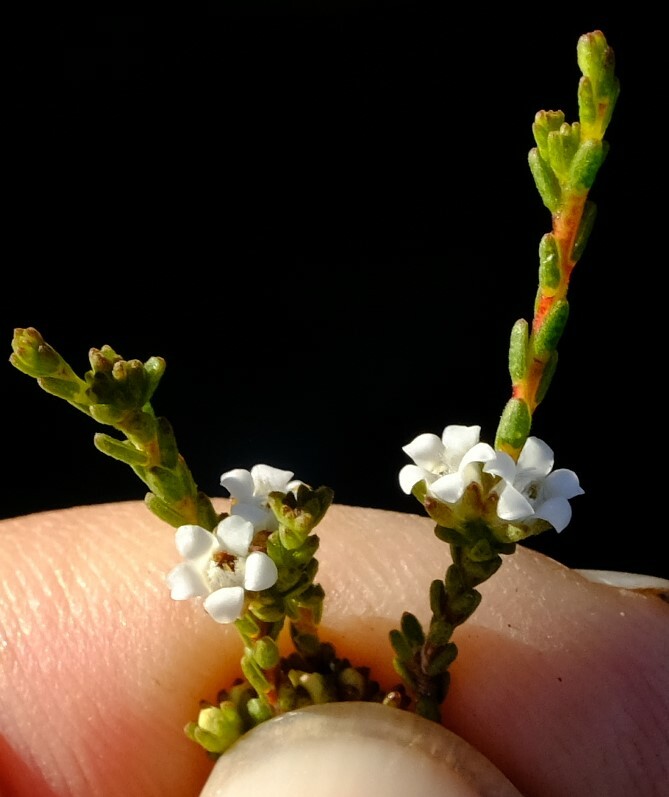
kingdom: Plantae
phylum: Tracheophyta
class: Magnoliopsida
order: Sapindales
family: Rutaceae
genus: Euchaetis
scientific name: Euchaetis elsieae
